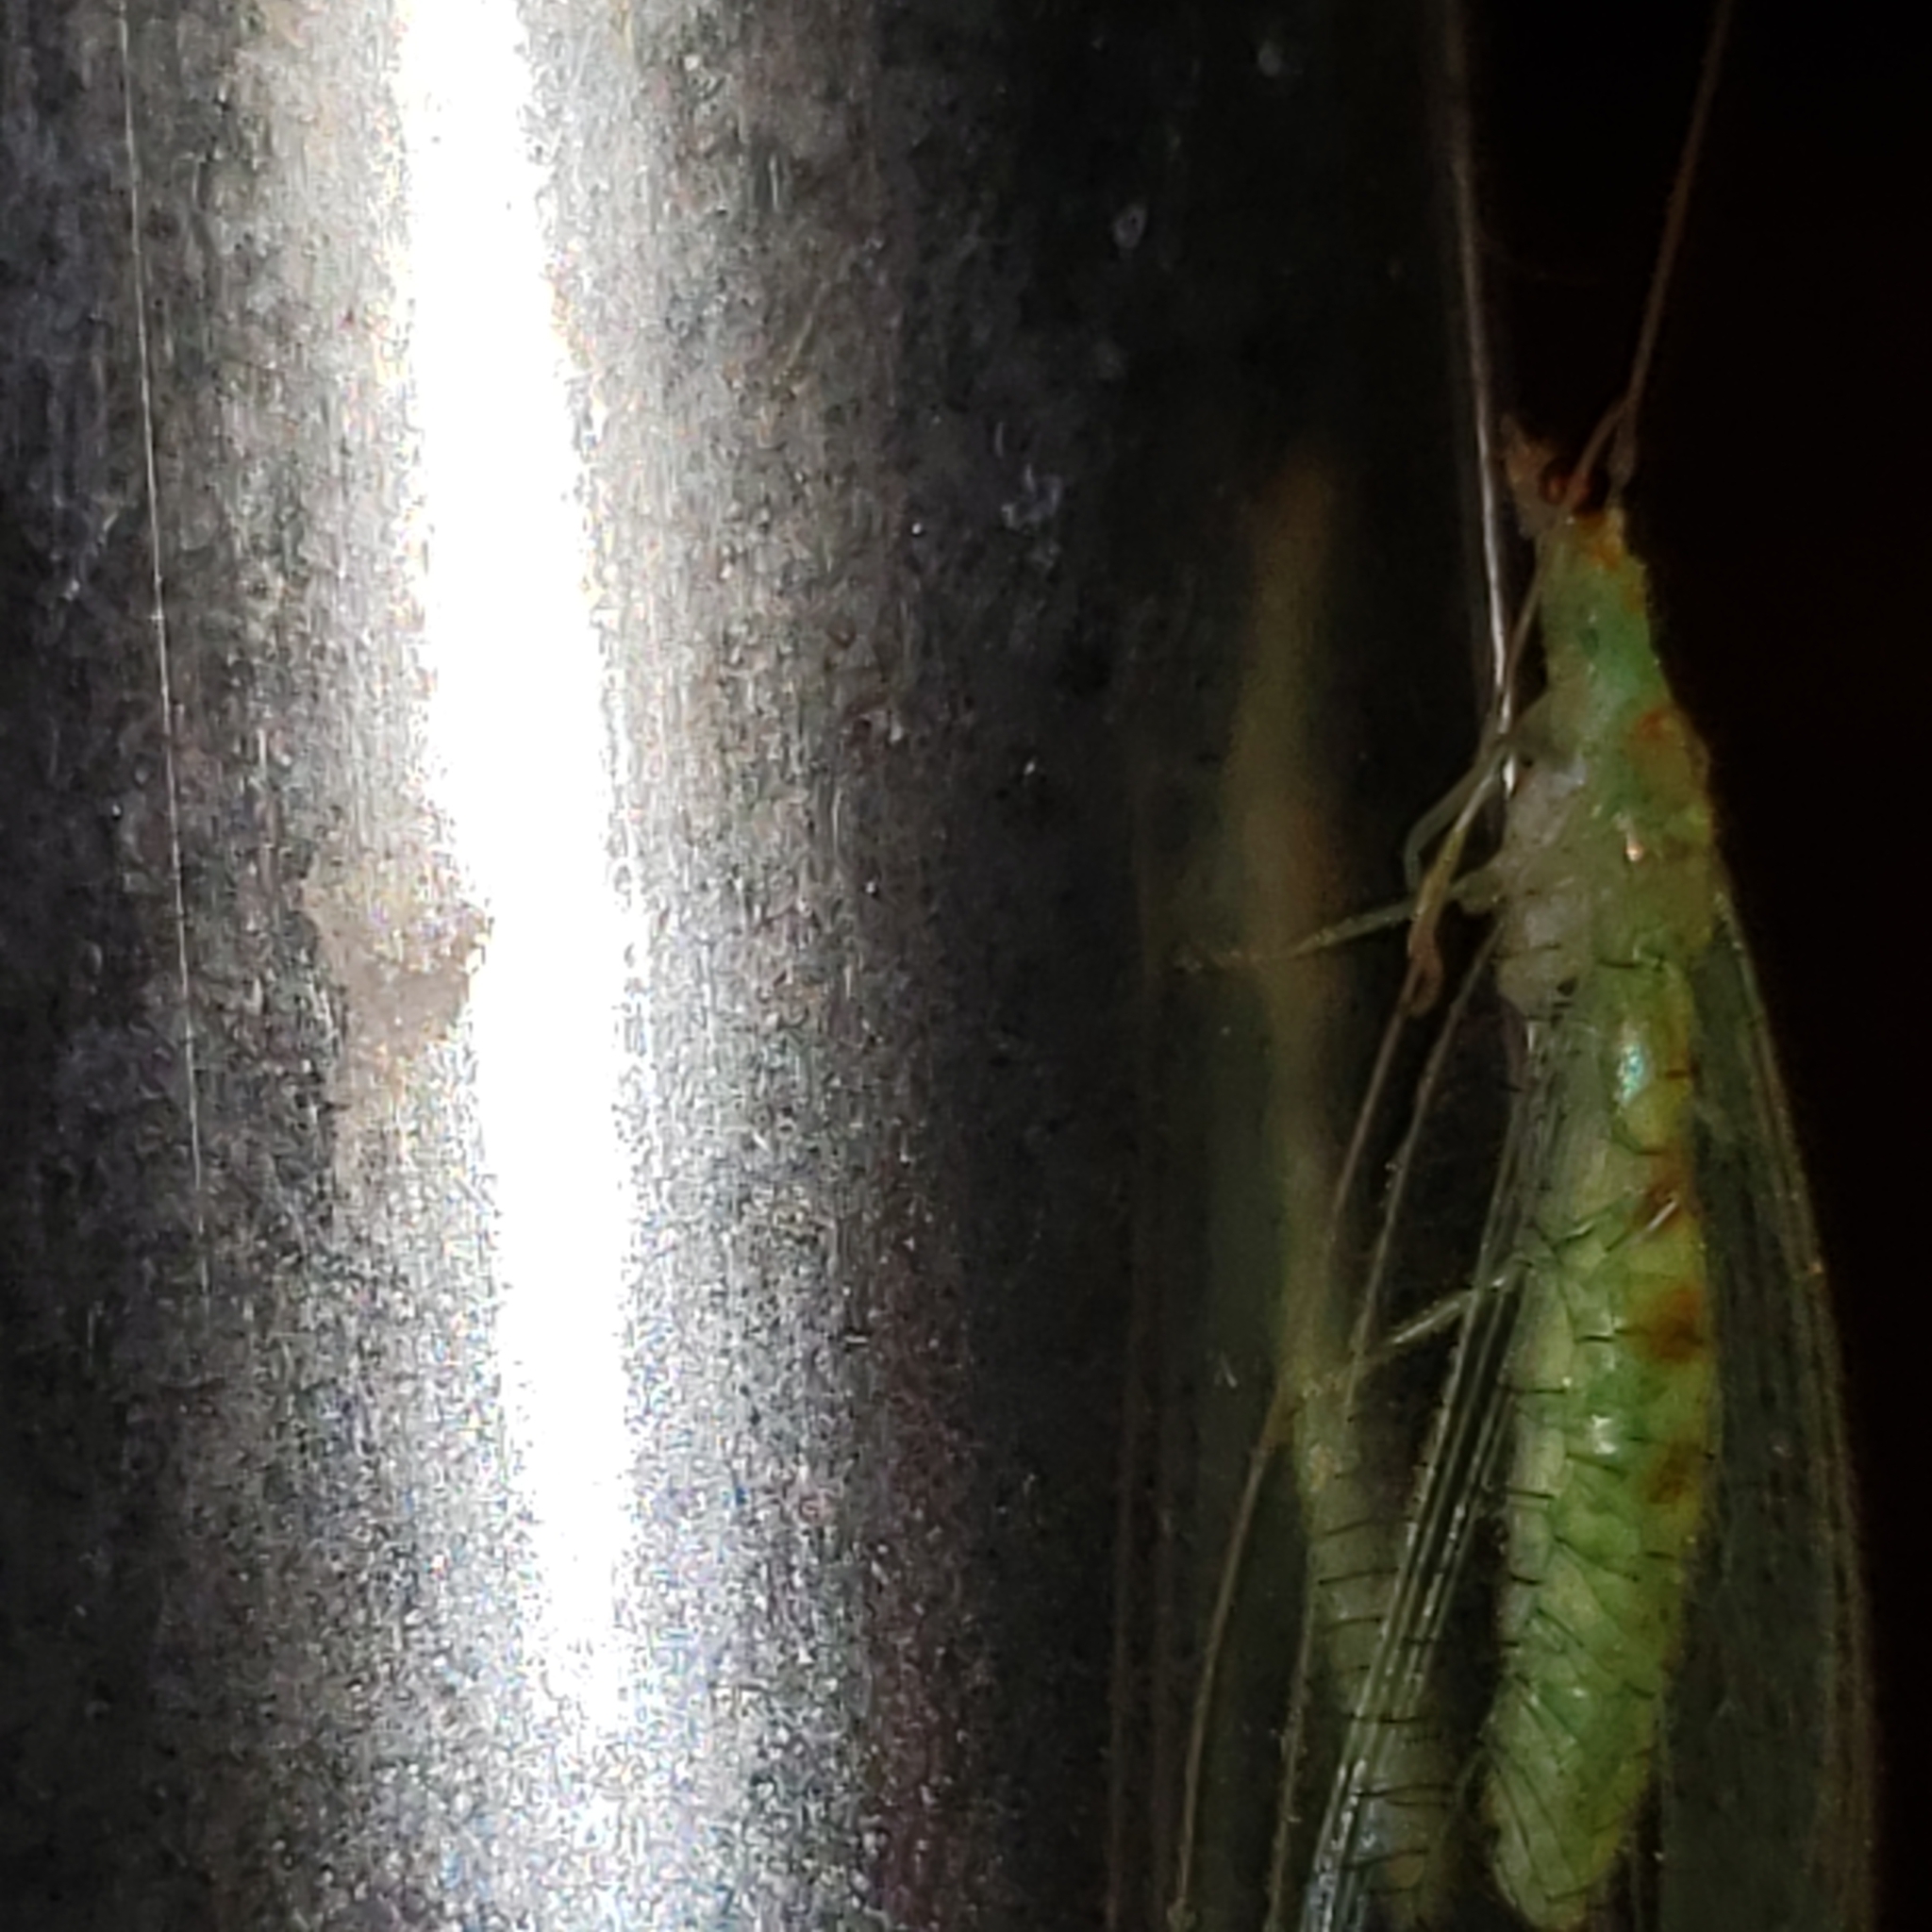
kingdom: Animalia
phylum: Arthropoda
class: Insecta
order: Neuroptera
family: Chrysopidae
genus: Chrysopa
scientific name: Chrysopa quadripunctata
